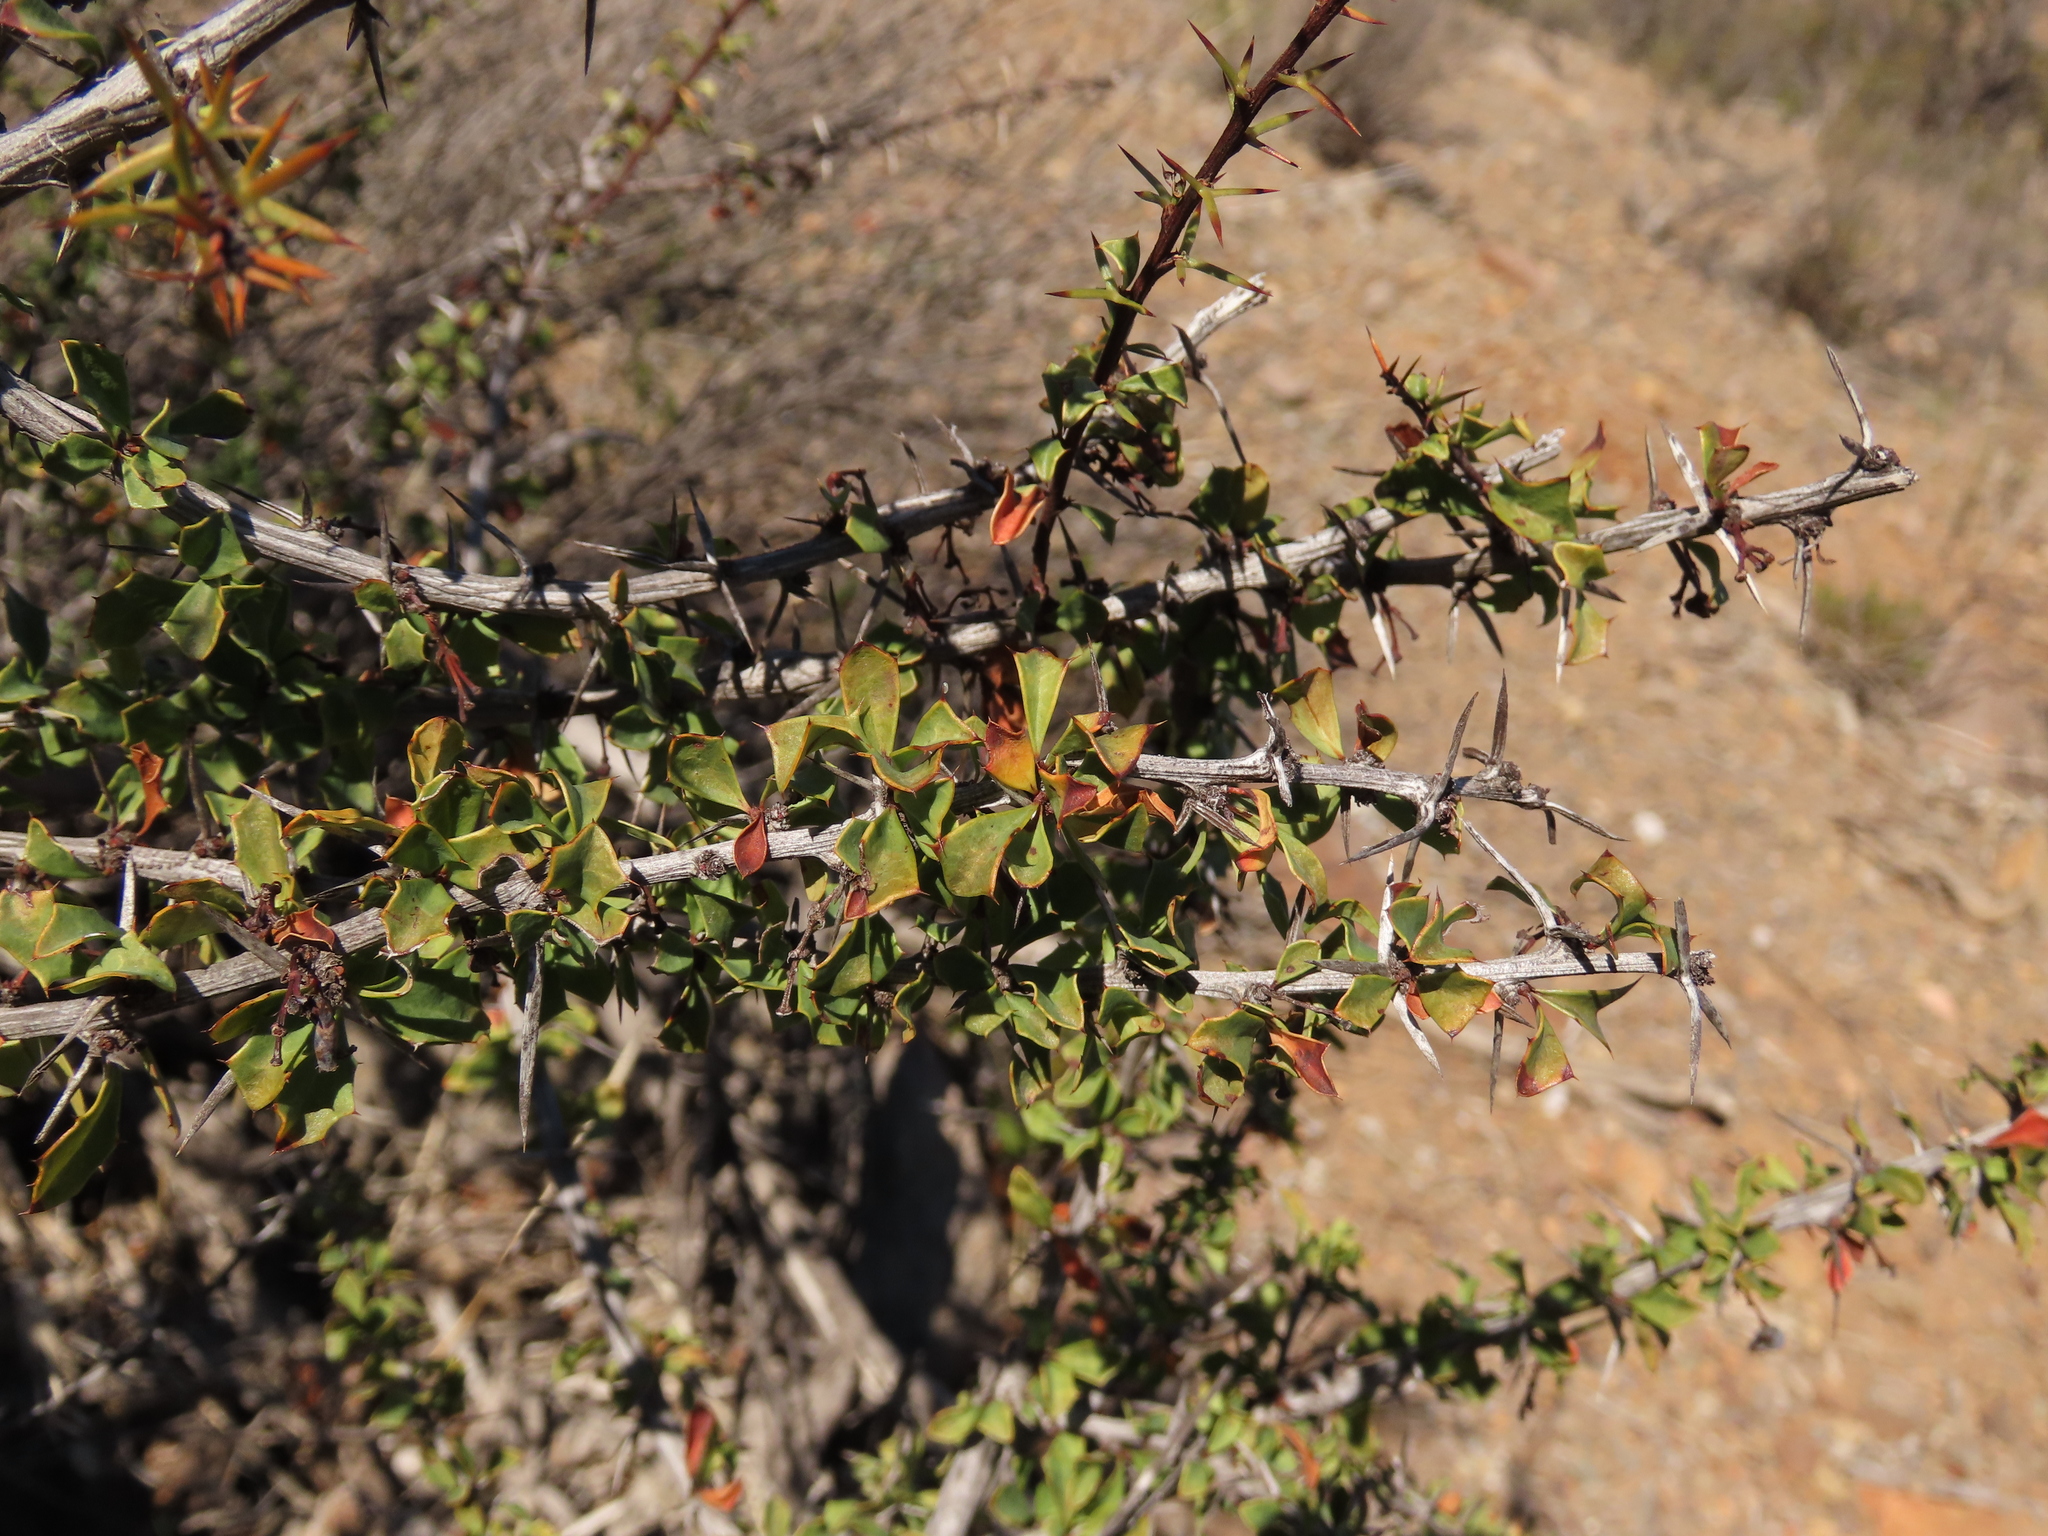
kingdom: Plantae
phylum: Tracheophyta
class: Magnoliopsida
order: Ranunculales
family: Berberidaceae
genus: Berberis
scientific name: Berberis glomerata
